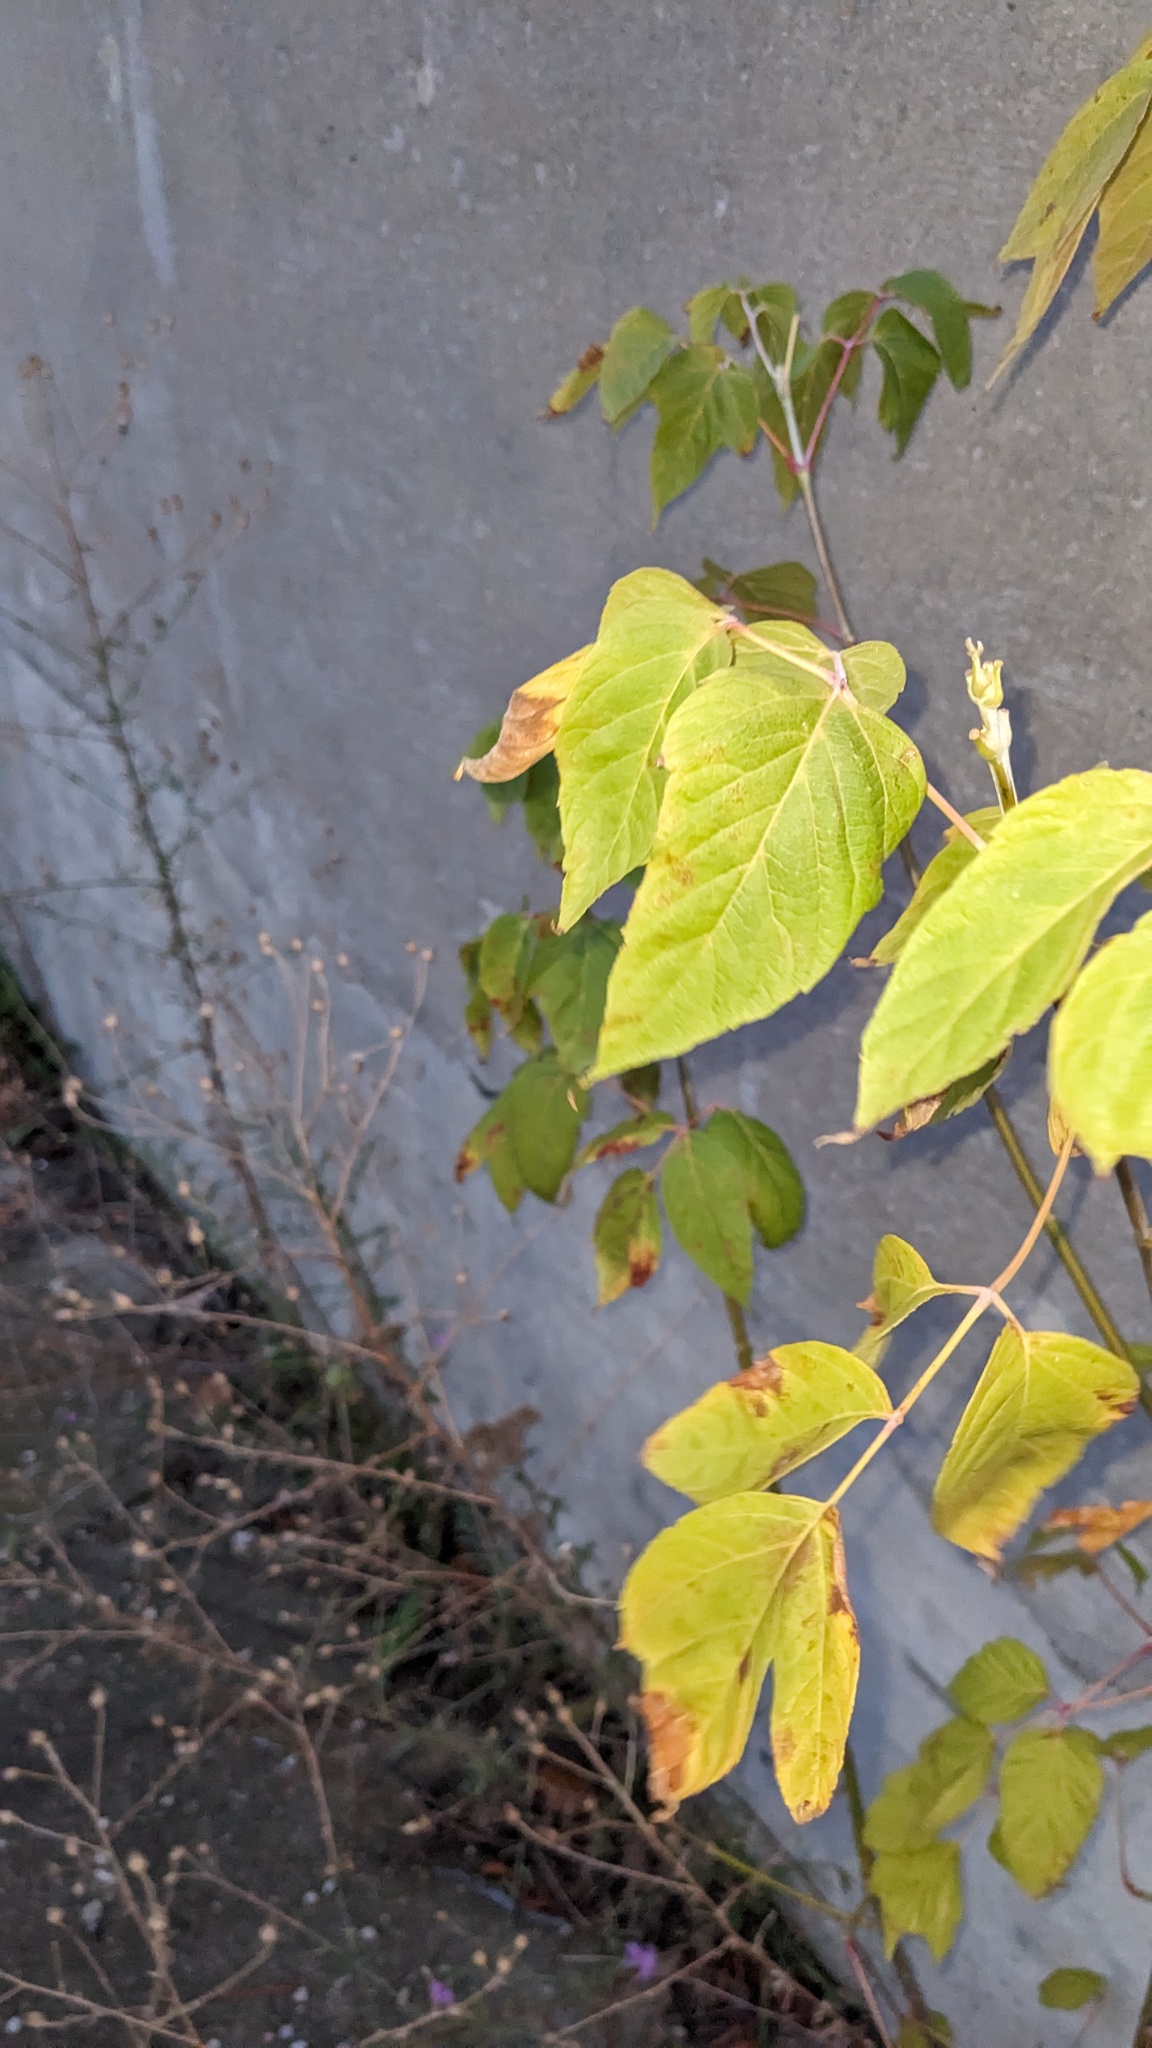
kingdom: Plantae
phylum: Tracheophyta
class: Magnoliopsida
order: Sapindales
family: Sapindaceae
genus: Acer
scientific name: Acer negundo
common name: Ashleaf maple
